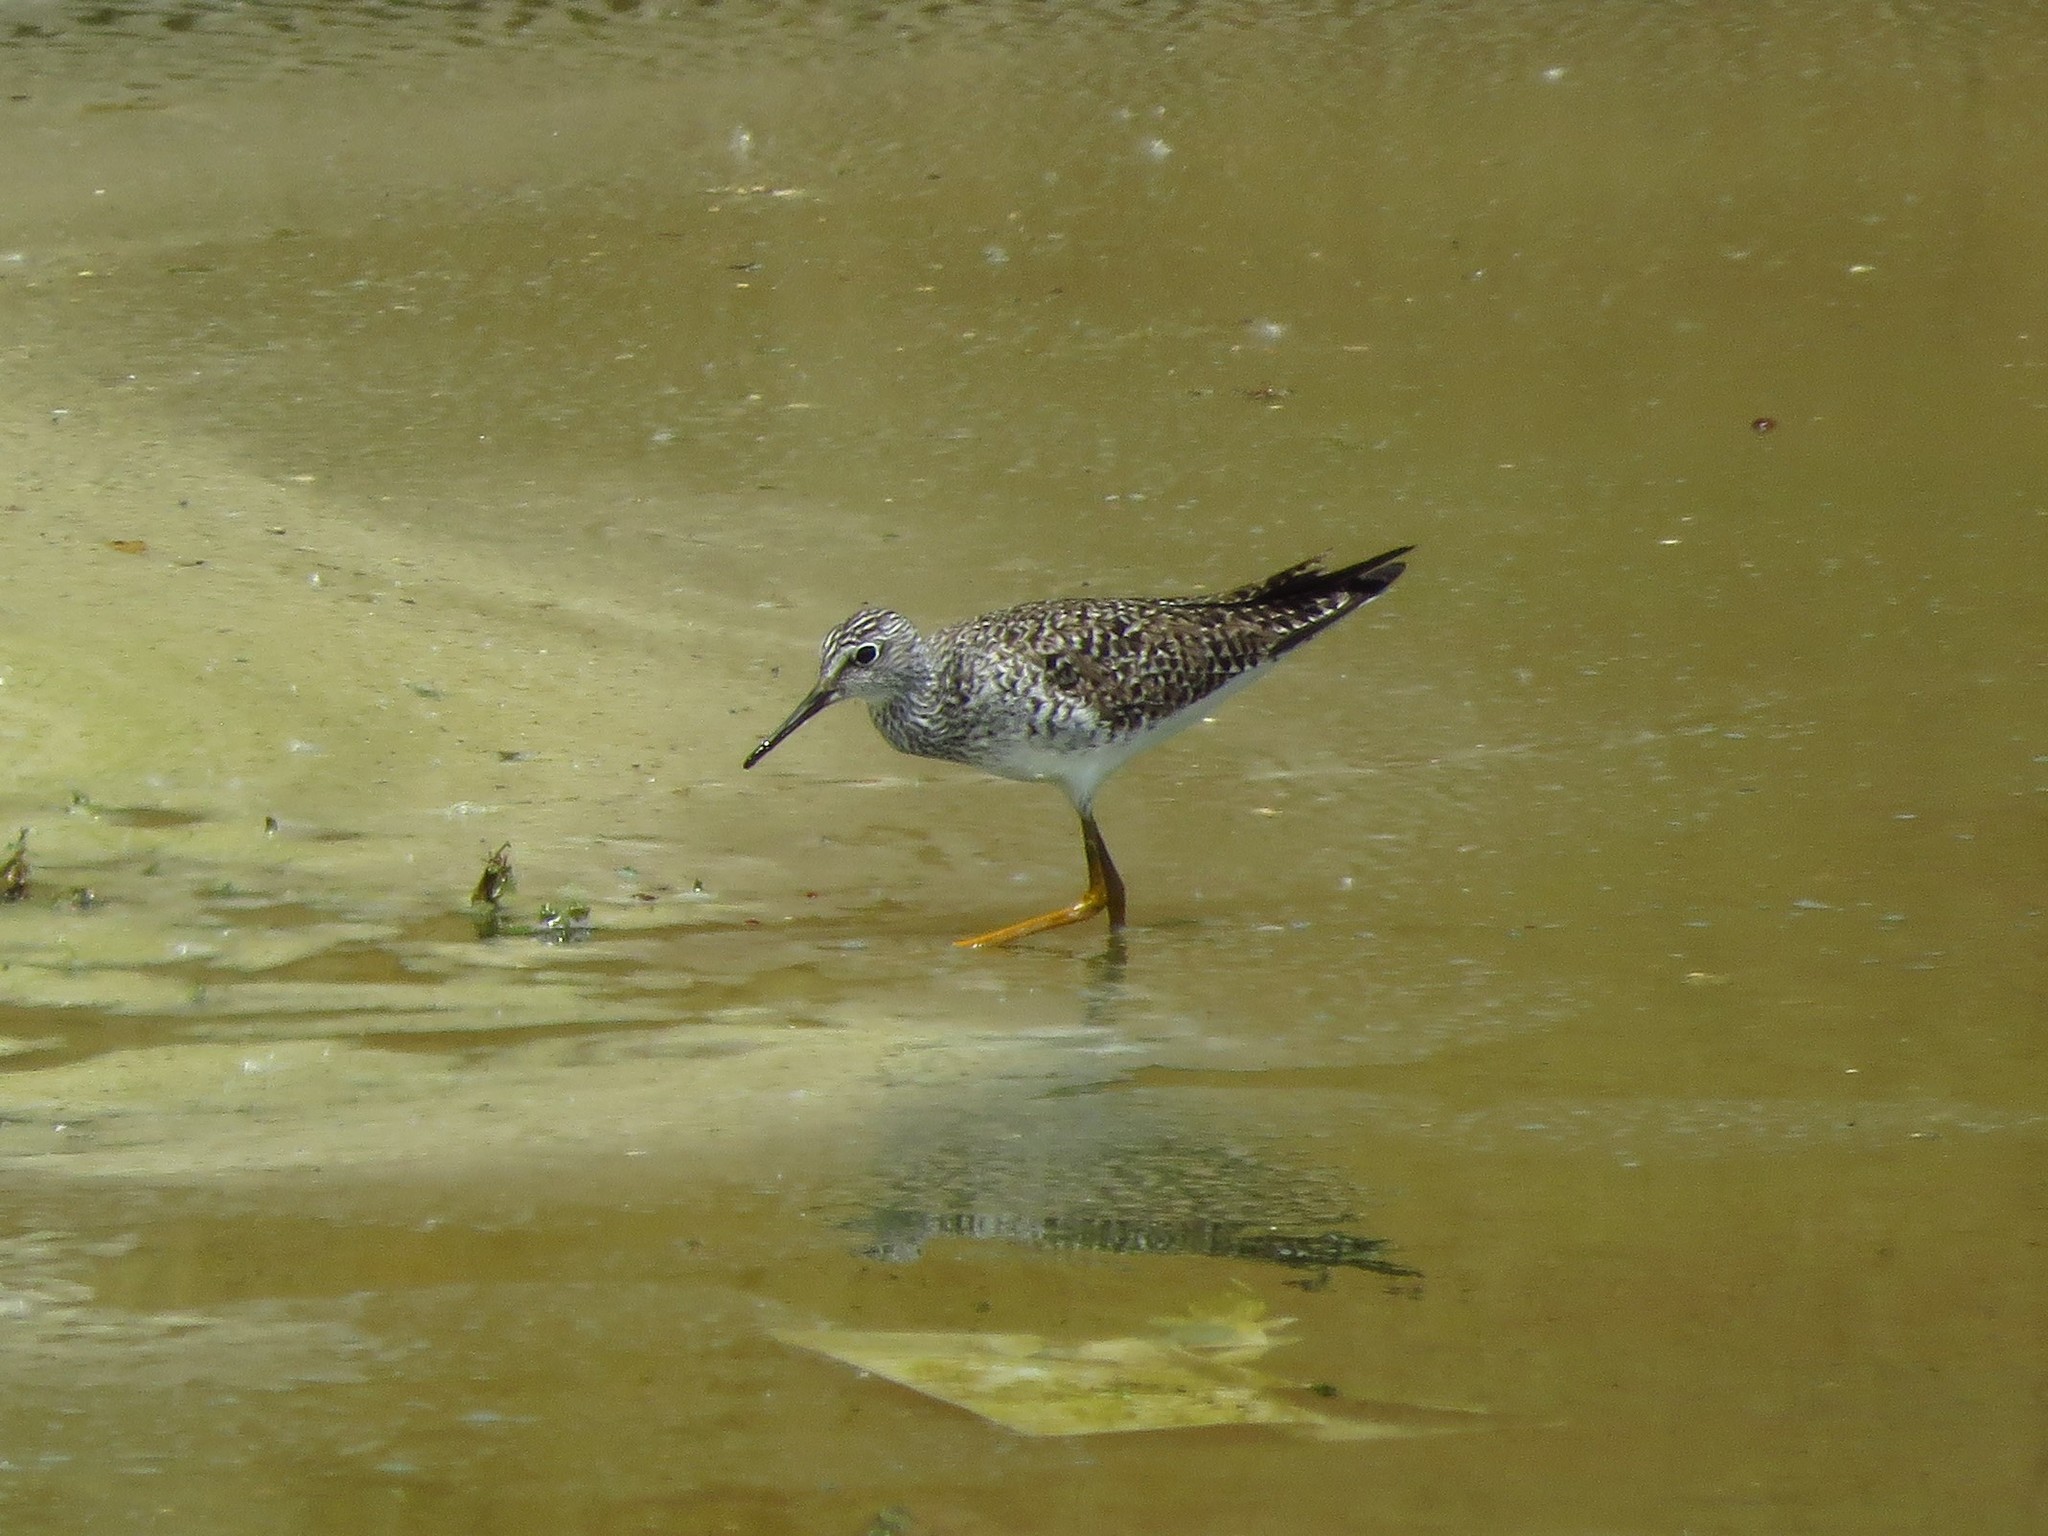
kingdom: Animalia
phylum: Chordata
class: Aves
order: Charadriiformes
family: Scolopacidae
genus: Tringa
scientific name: Tringa flavipes
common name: Lesser yellowlegs
